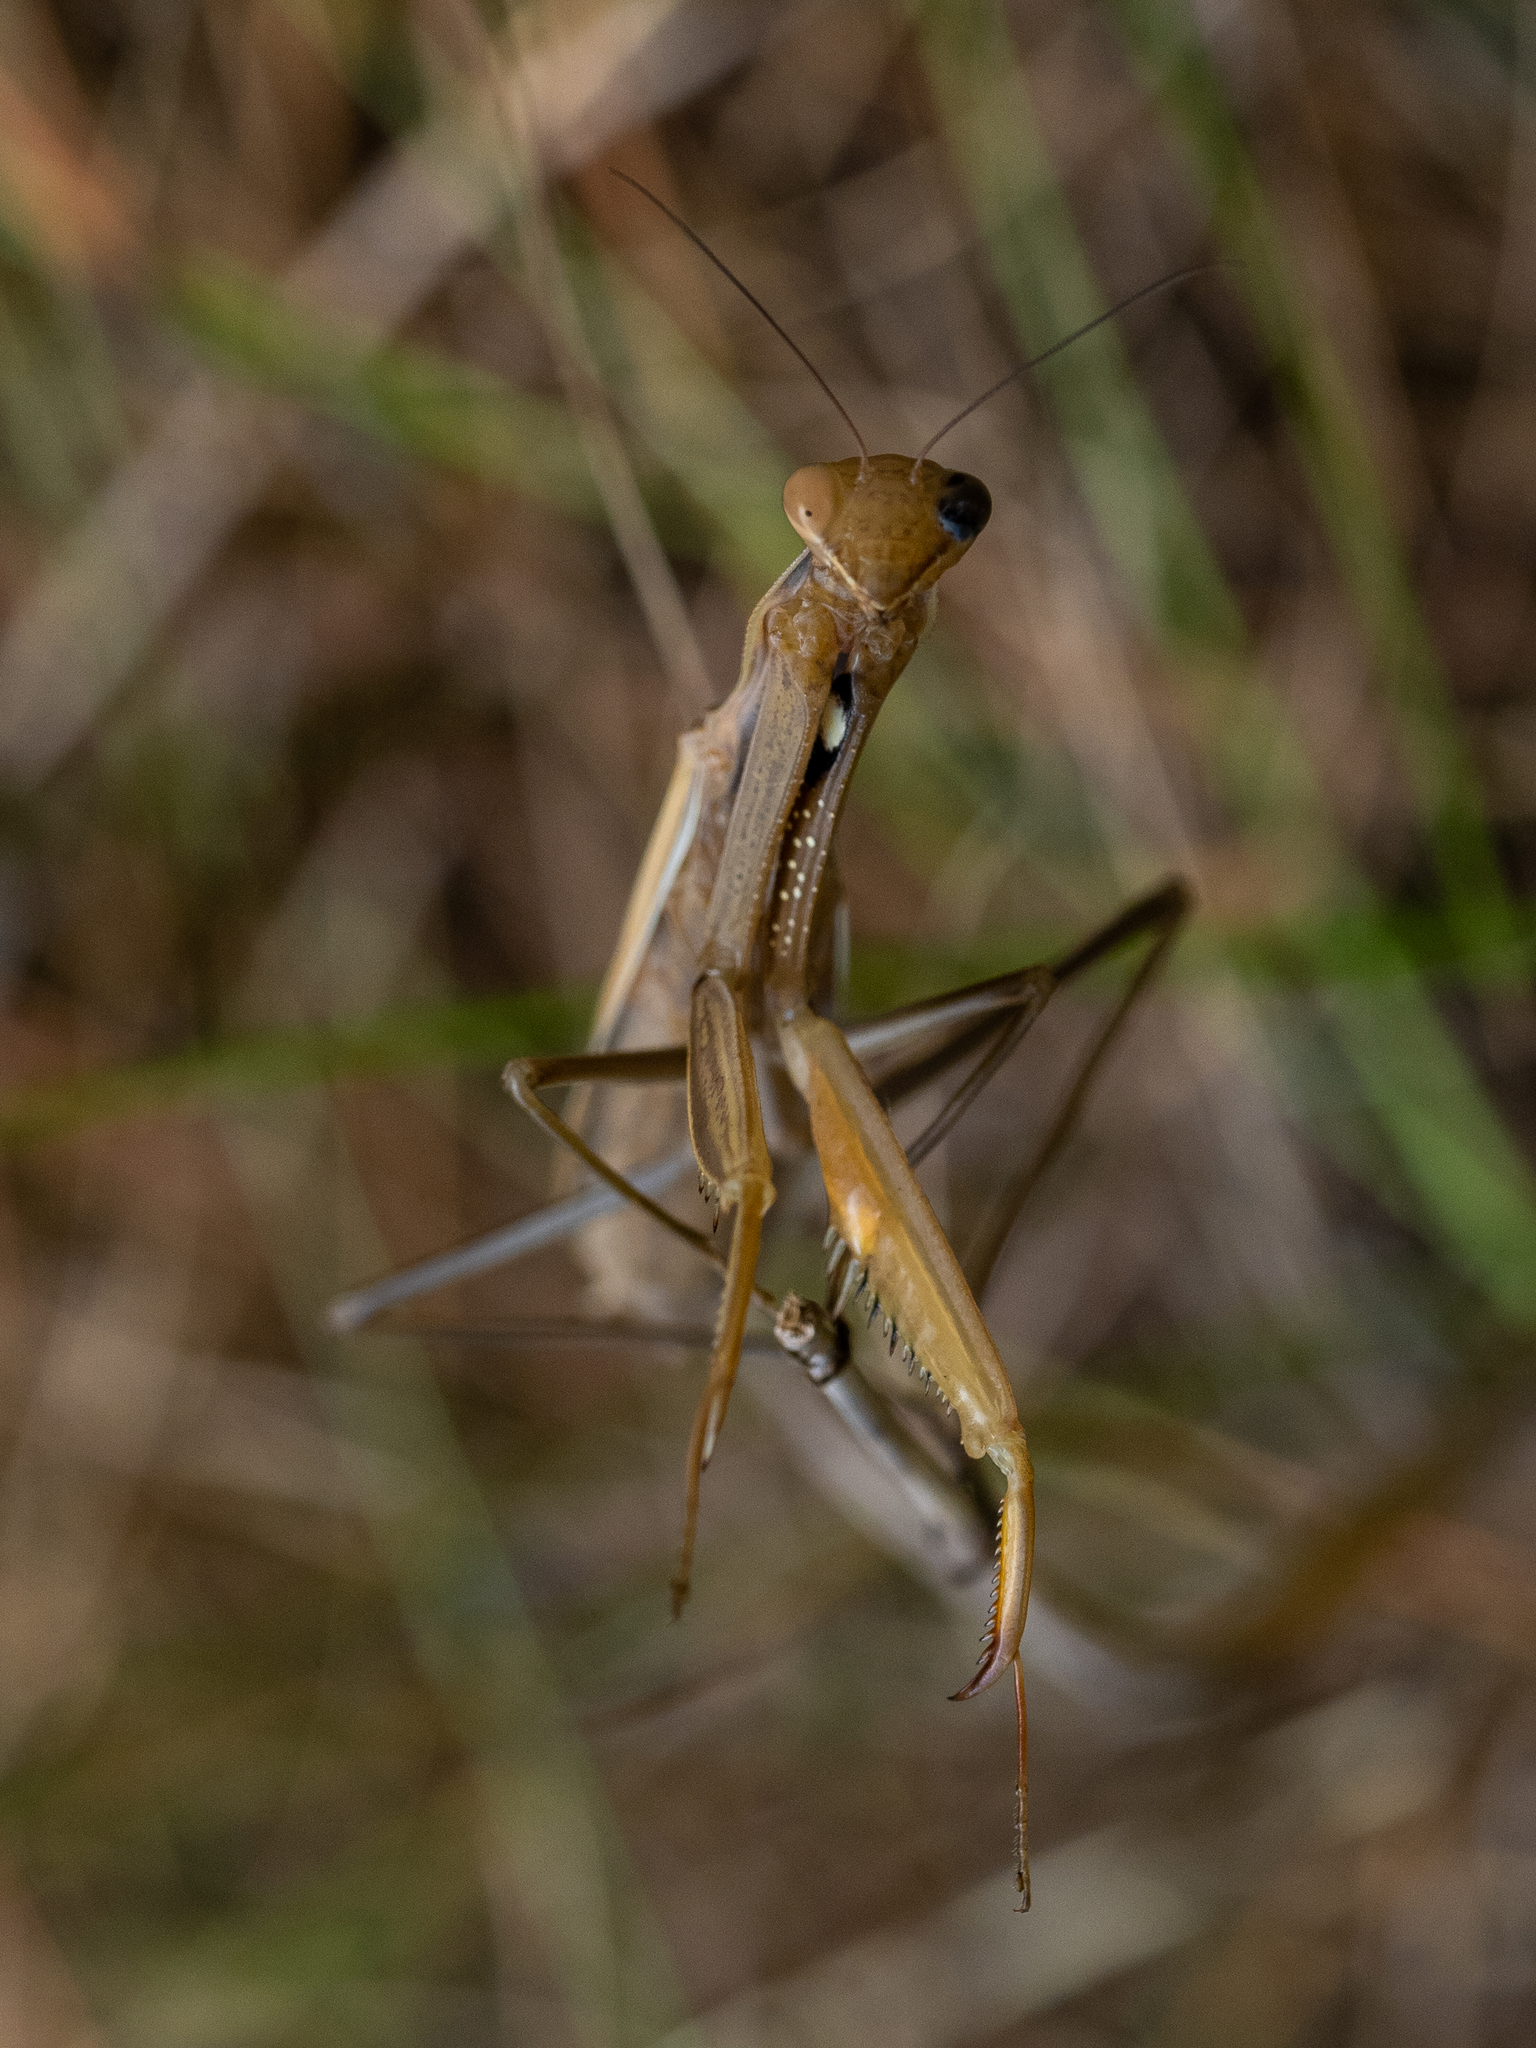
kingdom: Animalia
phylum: Arthropoda
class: Insecta
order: Mantodea
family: Mantidae
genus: Mantis
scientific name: Mantis religiosa
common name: Praying mantis
